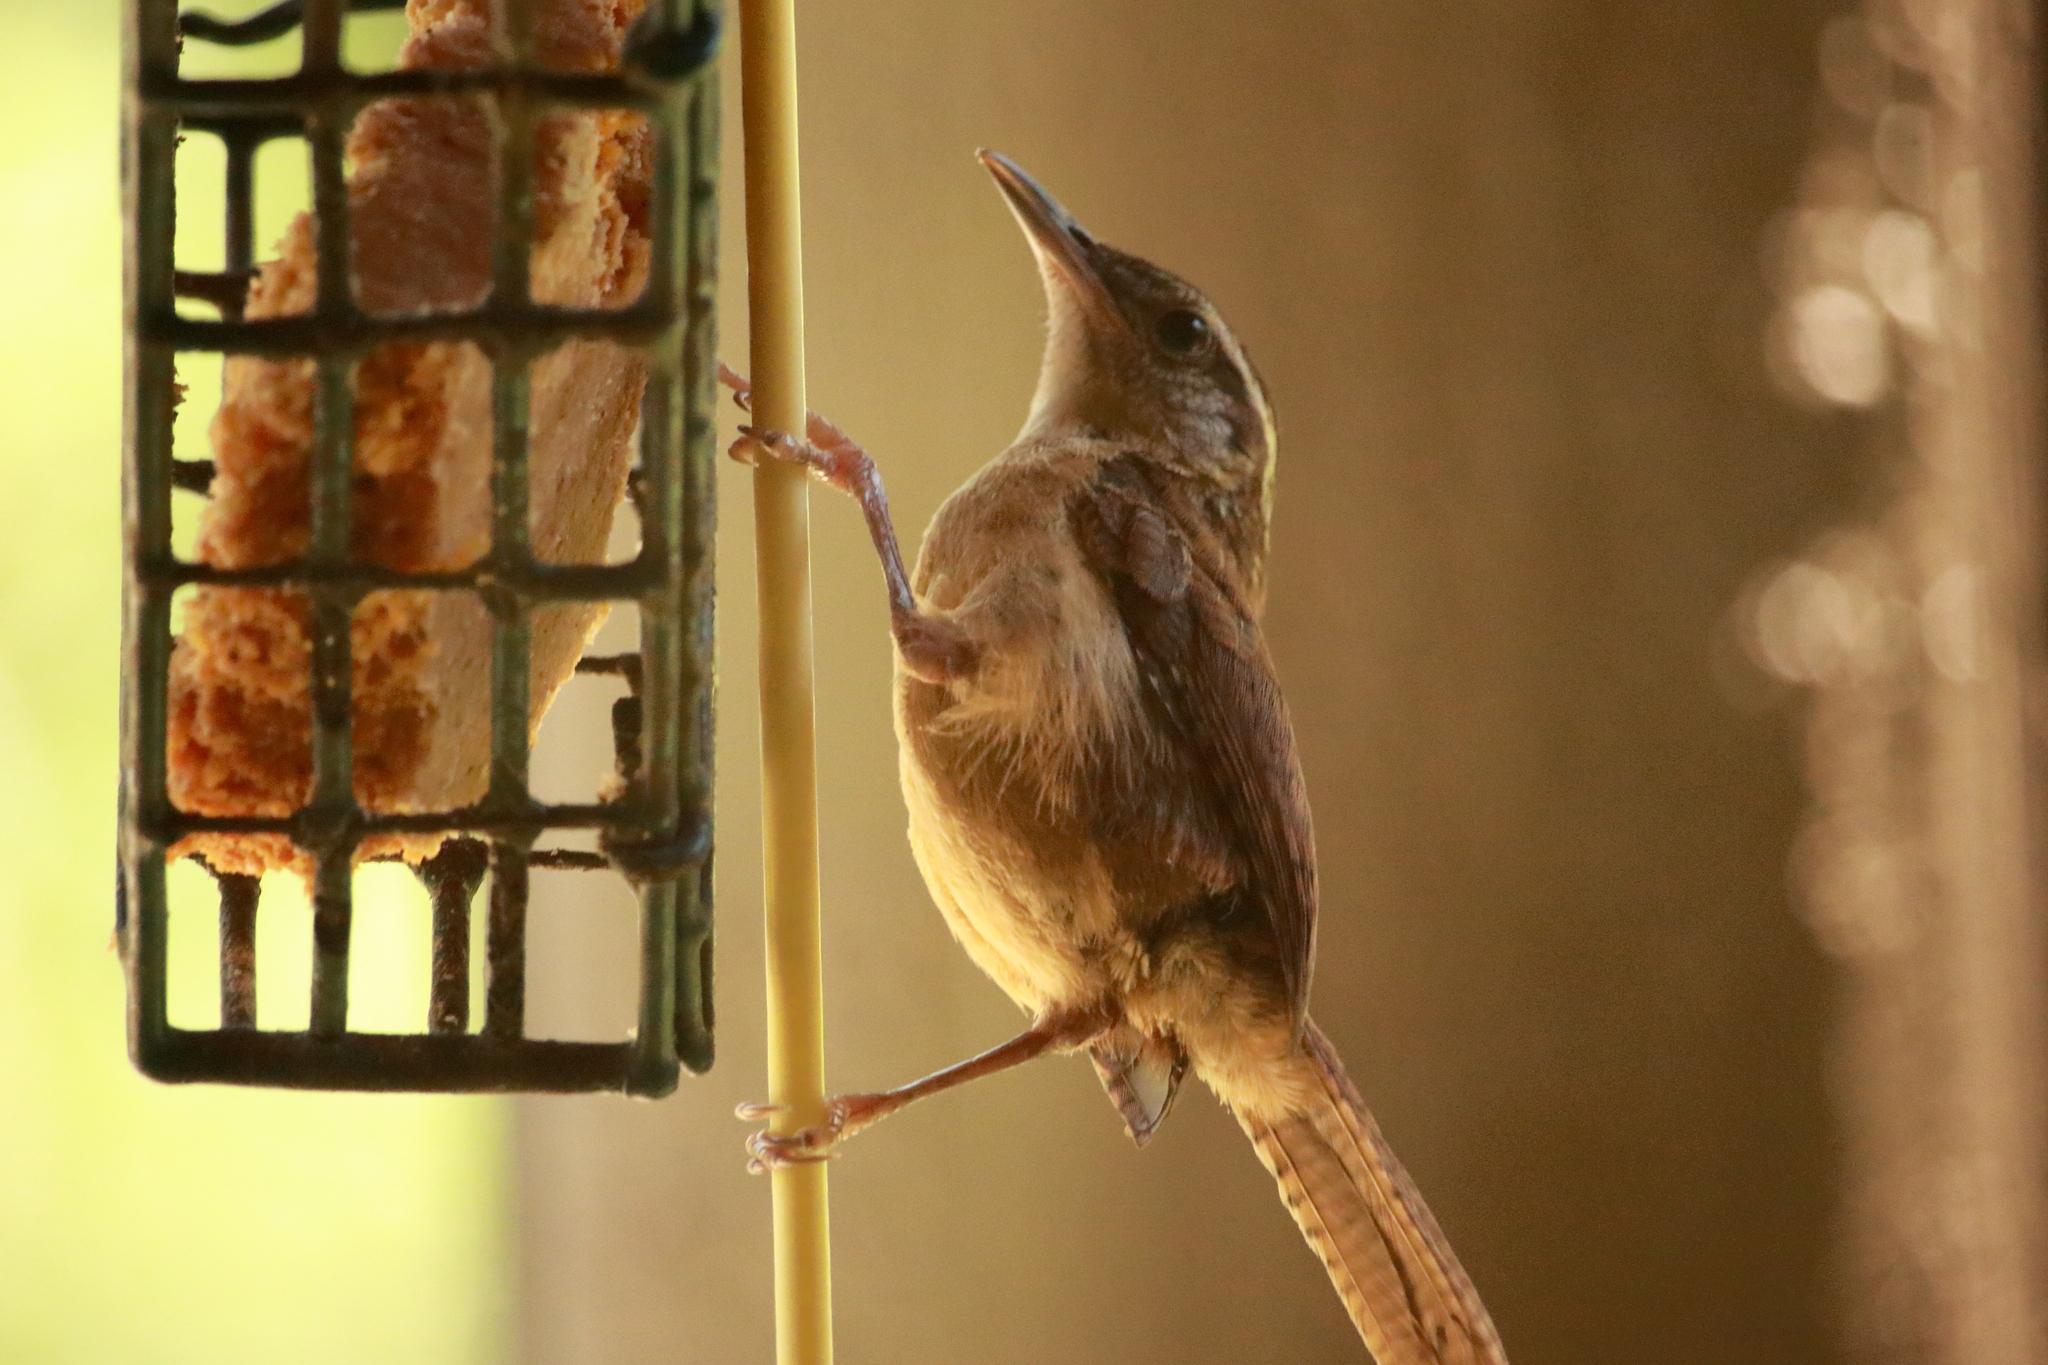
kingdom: Animalia
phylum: Chordata
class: Aves
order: Passeriformes
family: Troglodytidae
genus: Thryothorus
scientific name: Thryothorus ludovicianus
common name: Carolina wren
